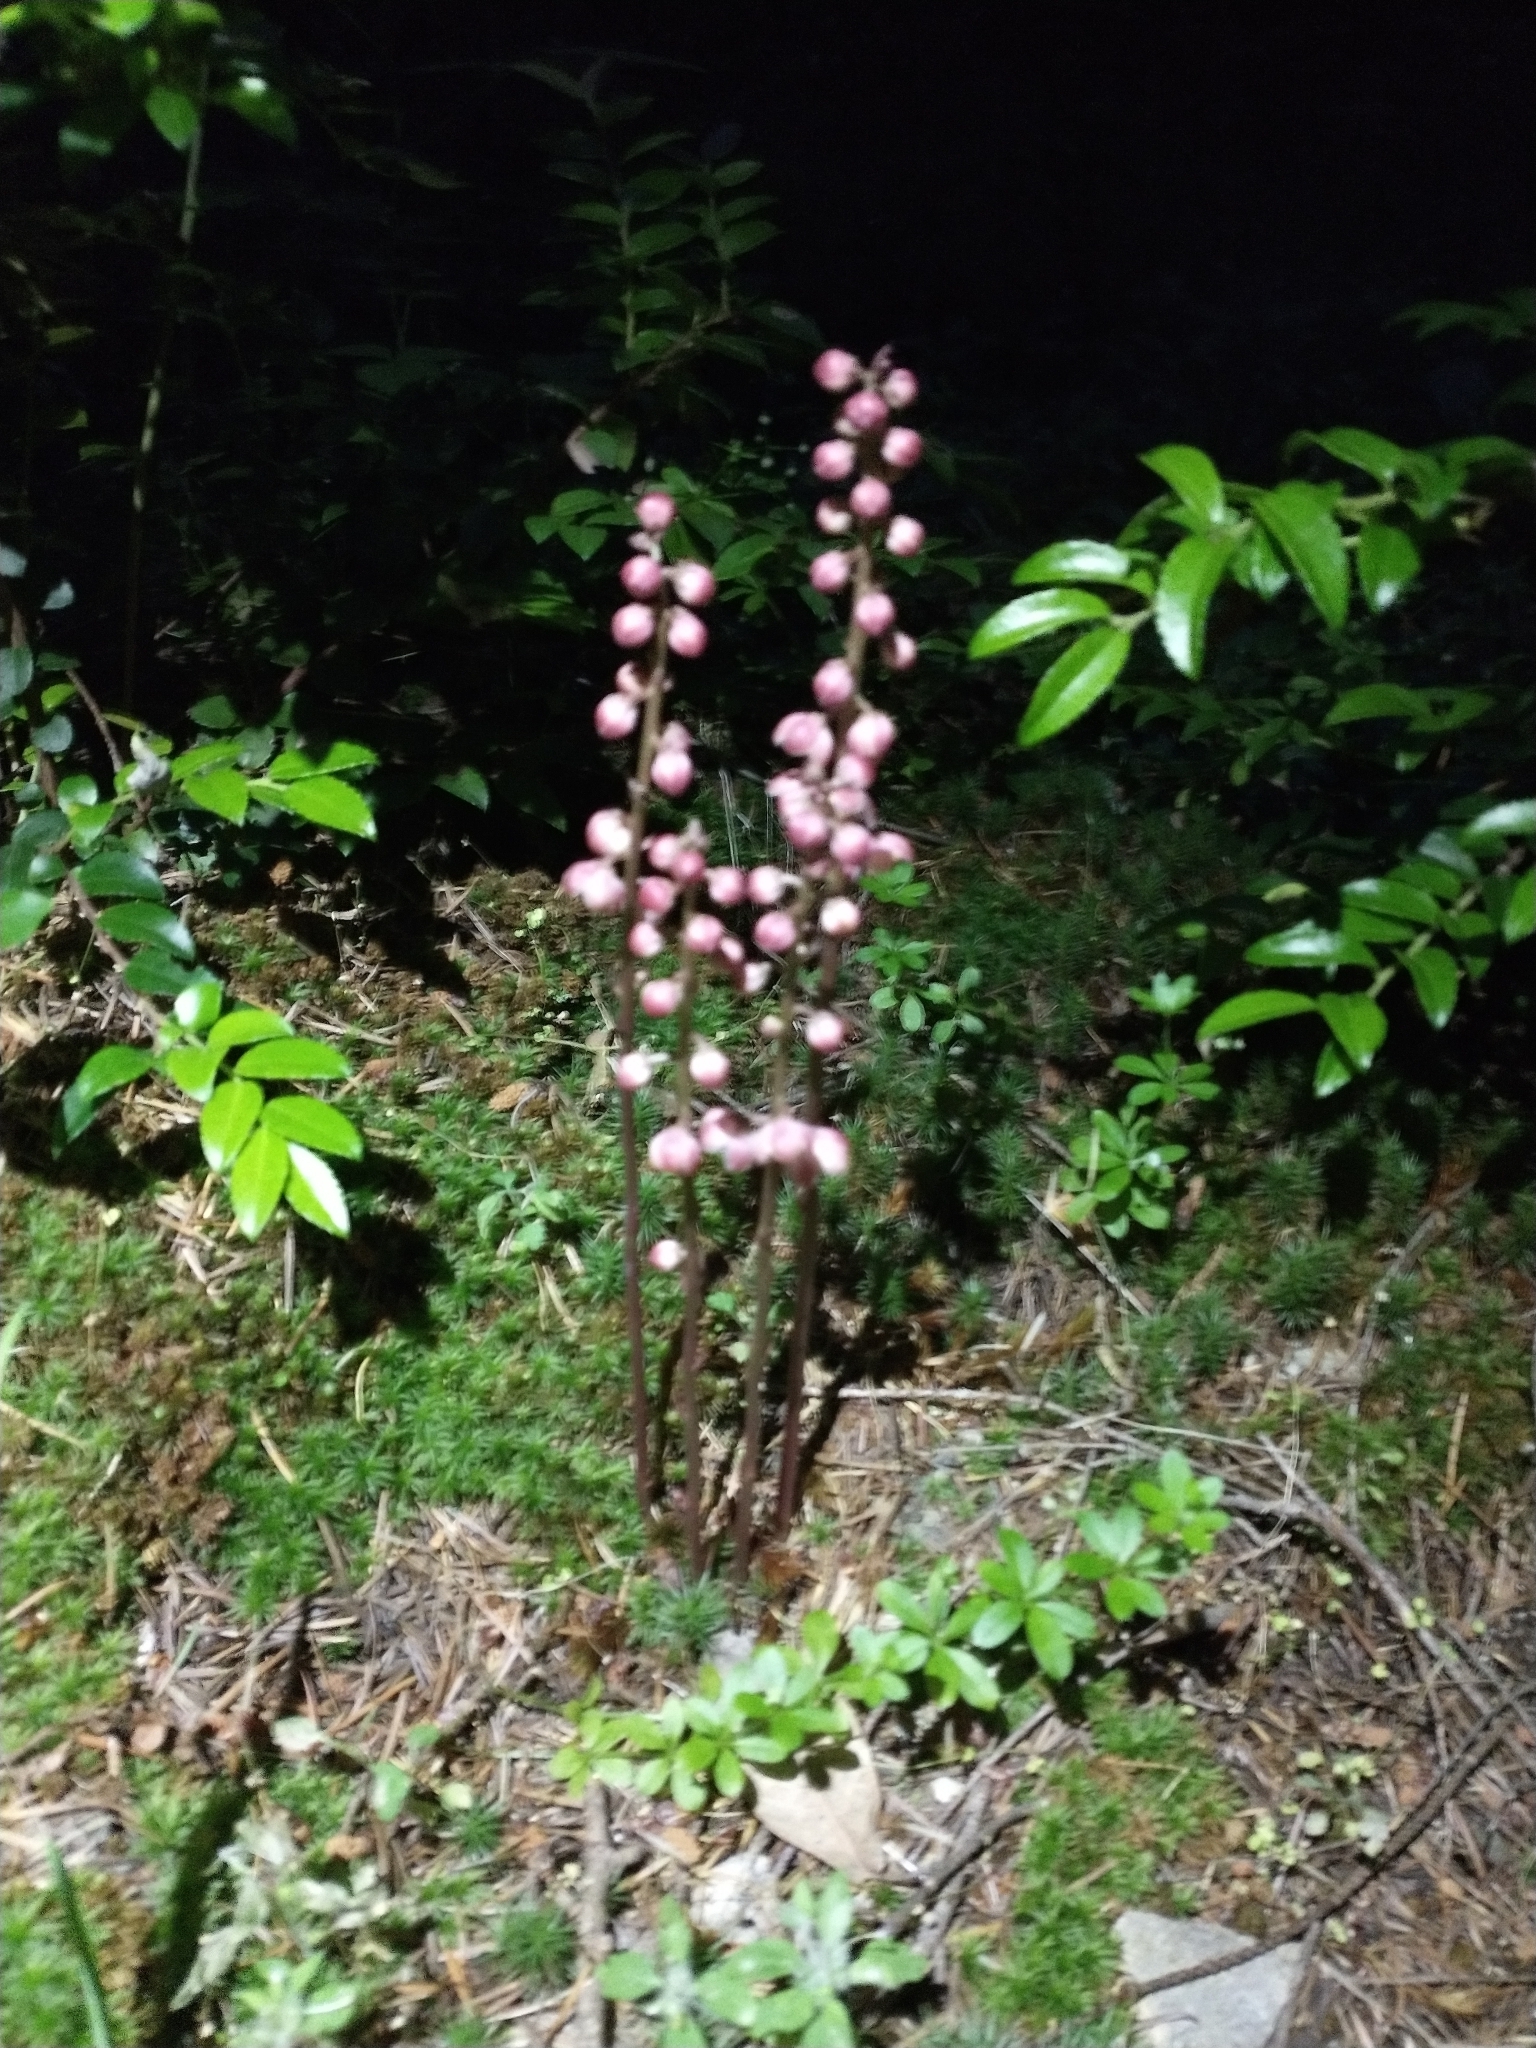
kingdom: Plantae
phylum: Tracheophyta
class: Magnoliopsida
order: Ericales
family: Ericaceae
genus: Pyrola
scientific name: Pyrola aphylla
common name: Leafless wintergreen
